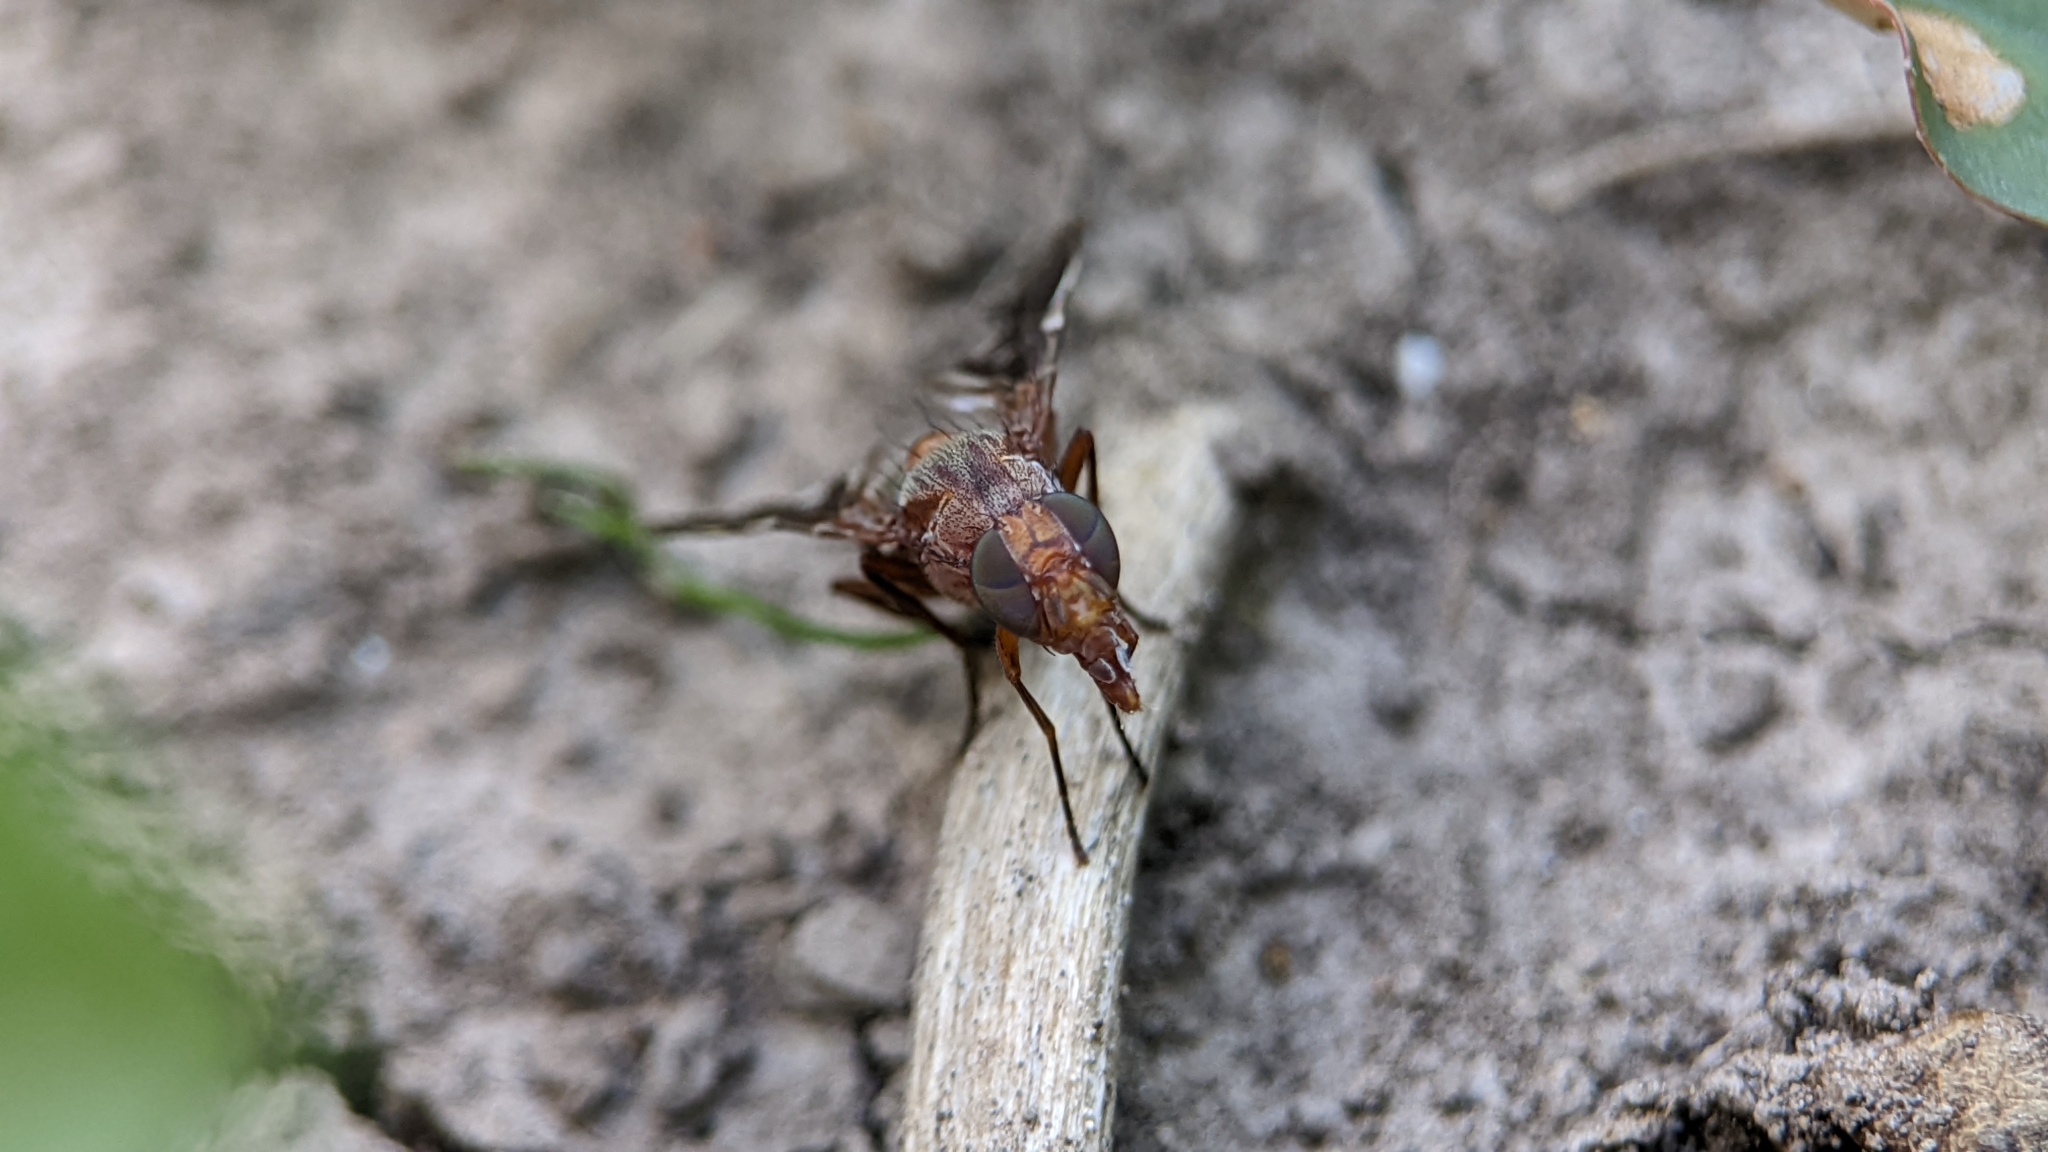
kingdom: Animalia
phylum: Arthropoda
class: Insecta
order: Diptera
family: Ulidiidae
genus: Delphinia
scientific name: Delphinia picta
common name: Common picture-winged fly
